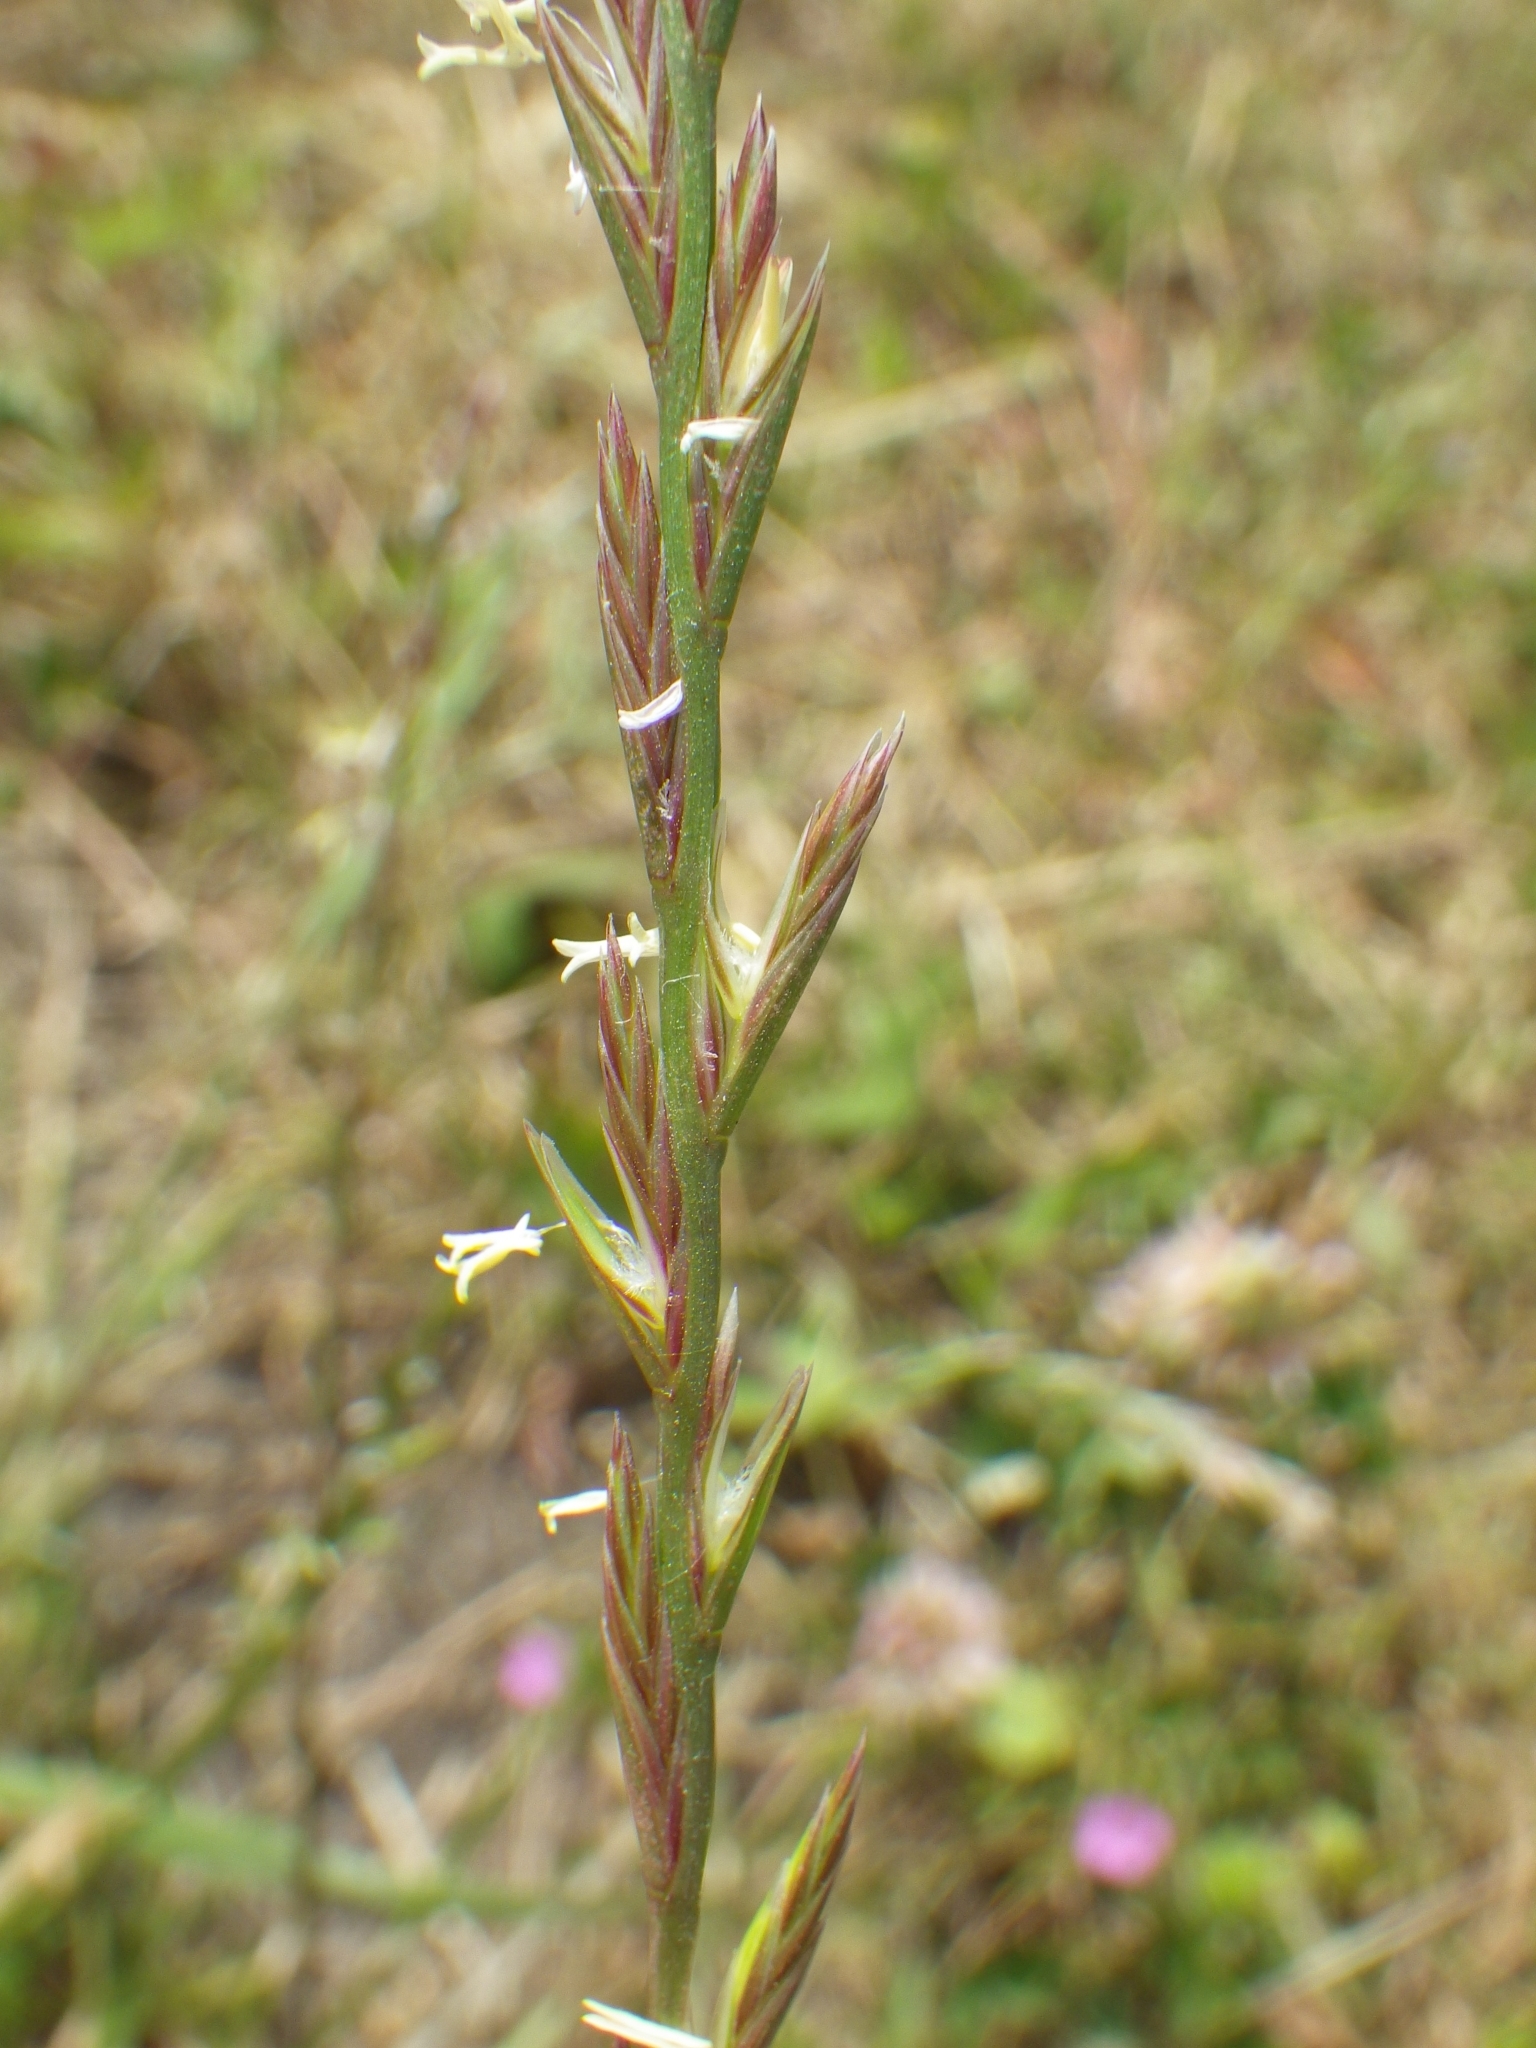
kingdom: Plantae
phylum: Tracheophyta
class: Liliopsida
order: Poales
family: Poaceae
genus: Lolium
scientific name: Lolium perenne
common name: Perennial ryegrass
